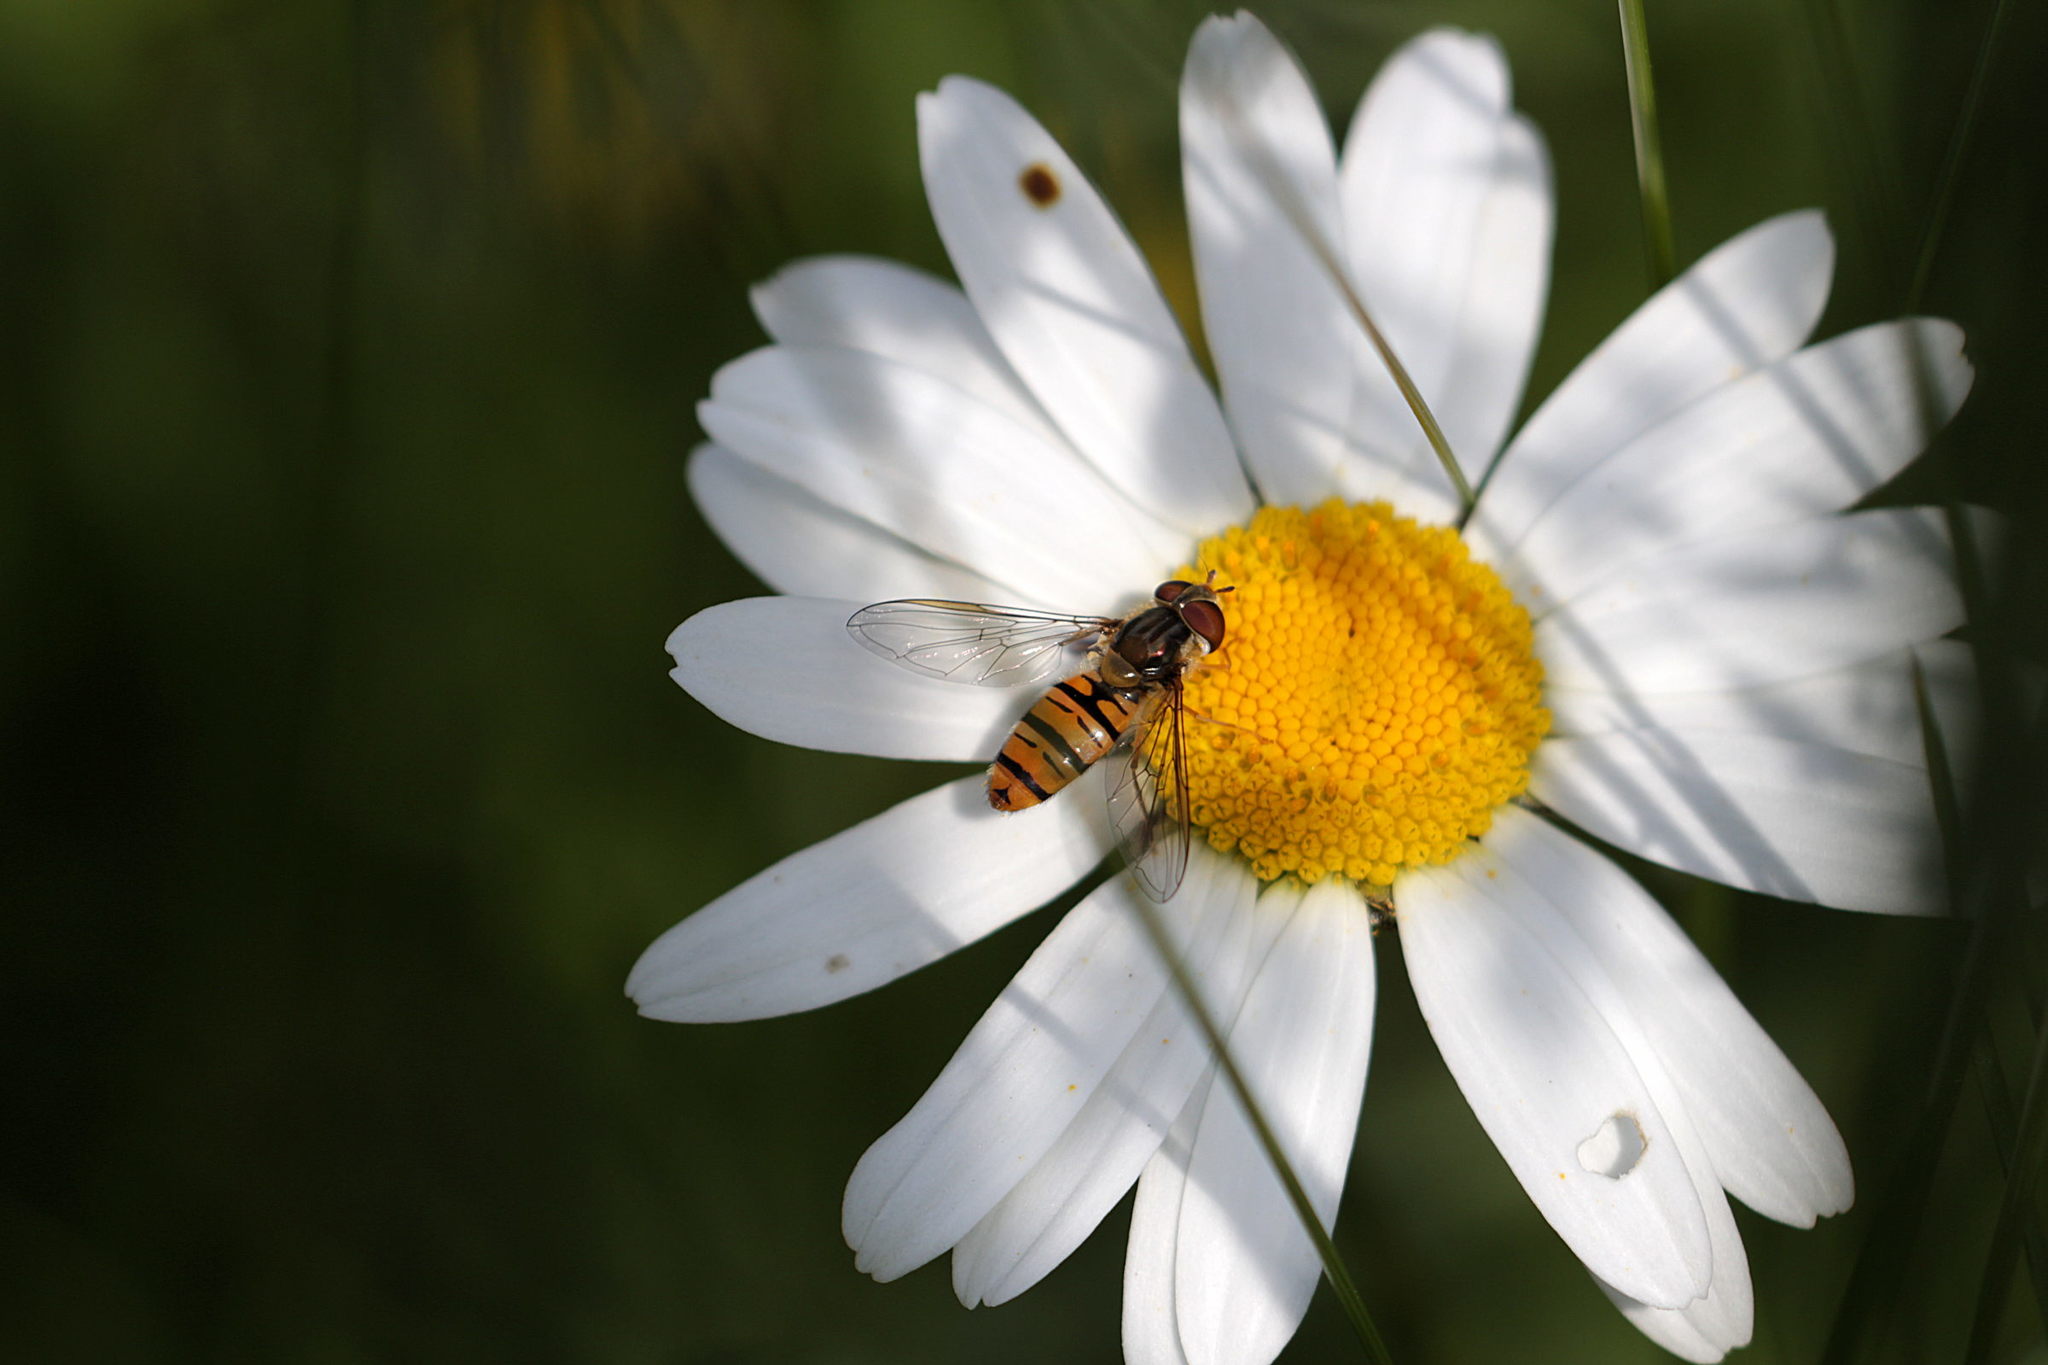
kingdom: Animalia
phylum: Arthropoda
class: Insecta
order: Diptera
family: Syrphidae
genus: Episyrphus
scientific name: Episyrphus balteatus
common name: Marmalade hoverfly
